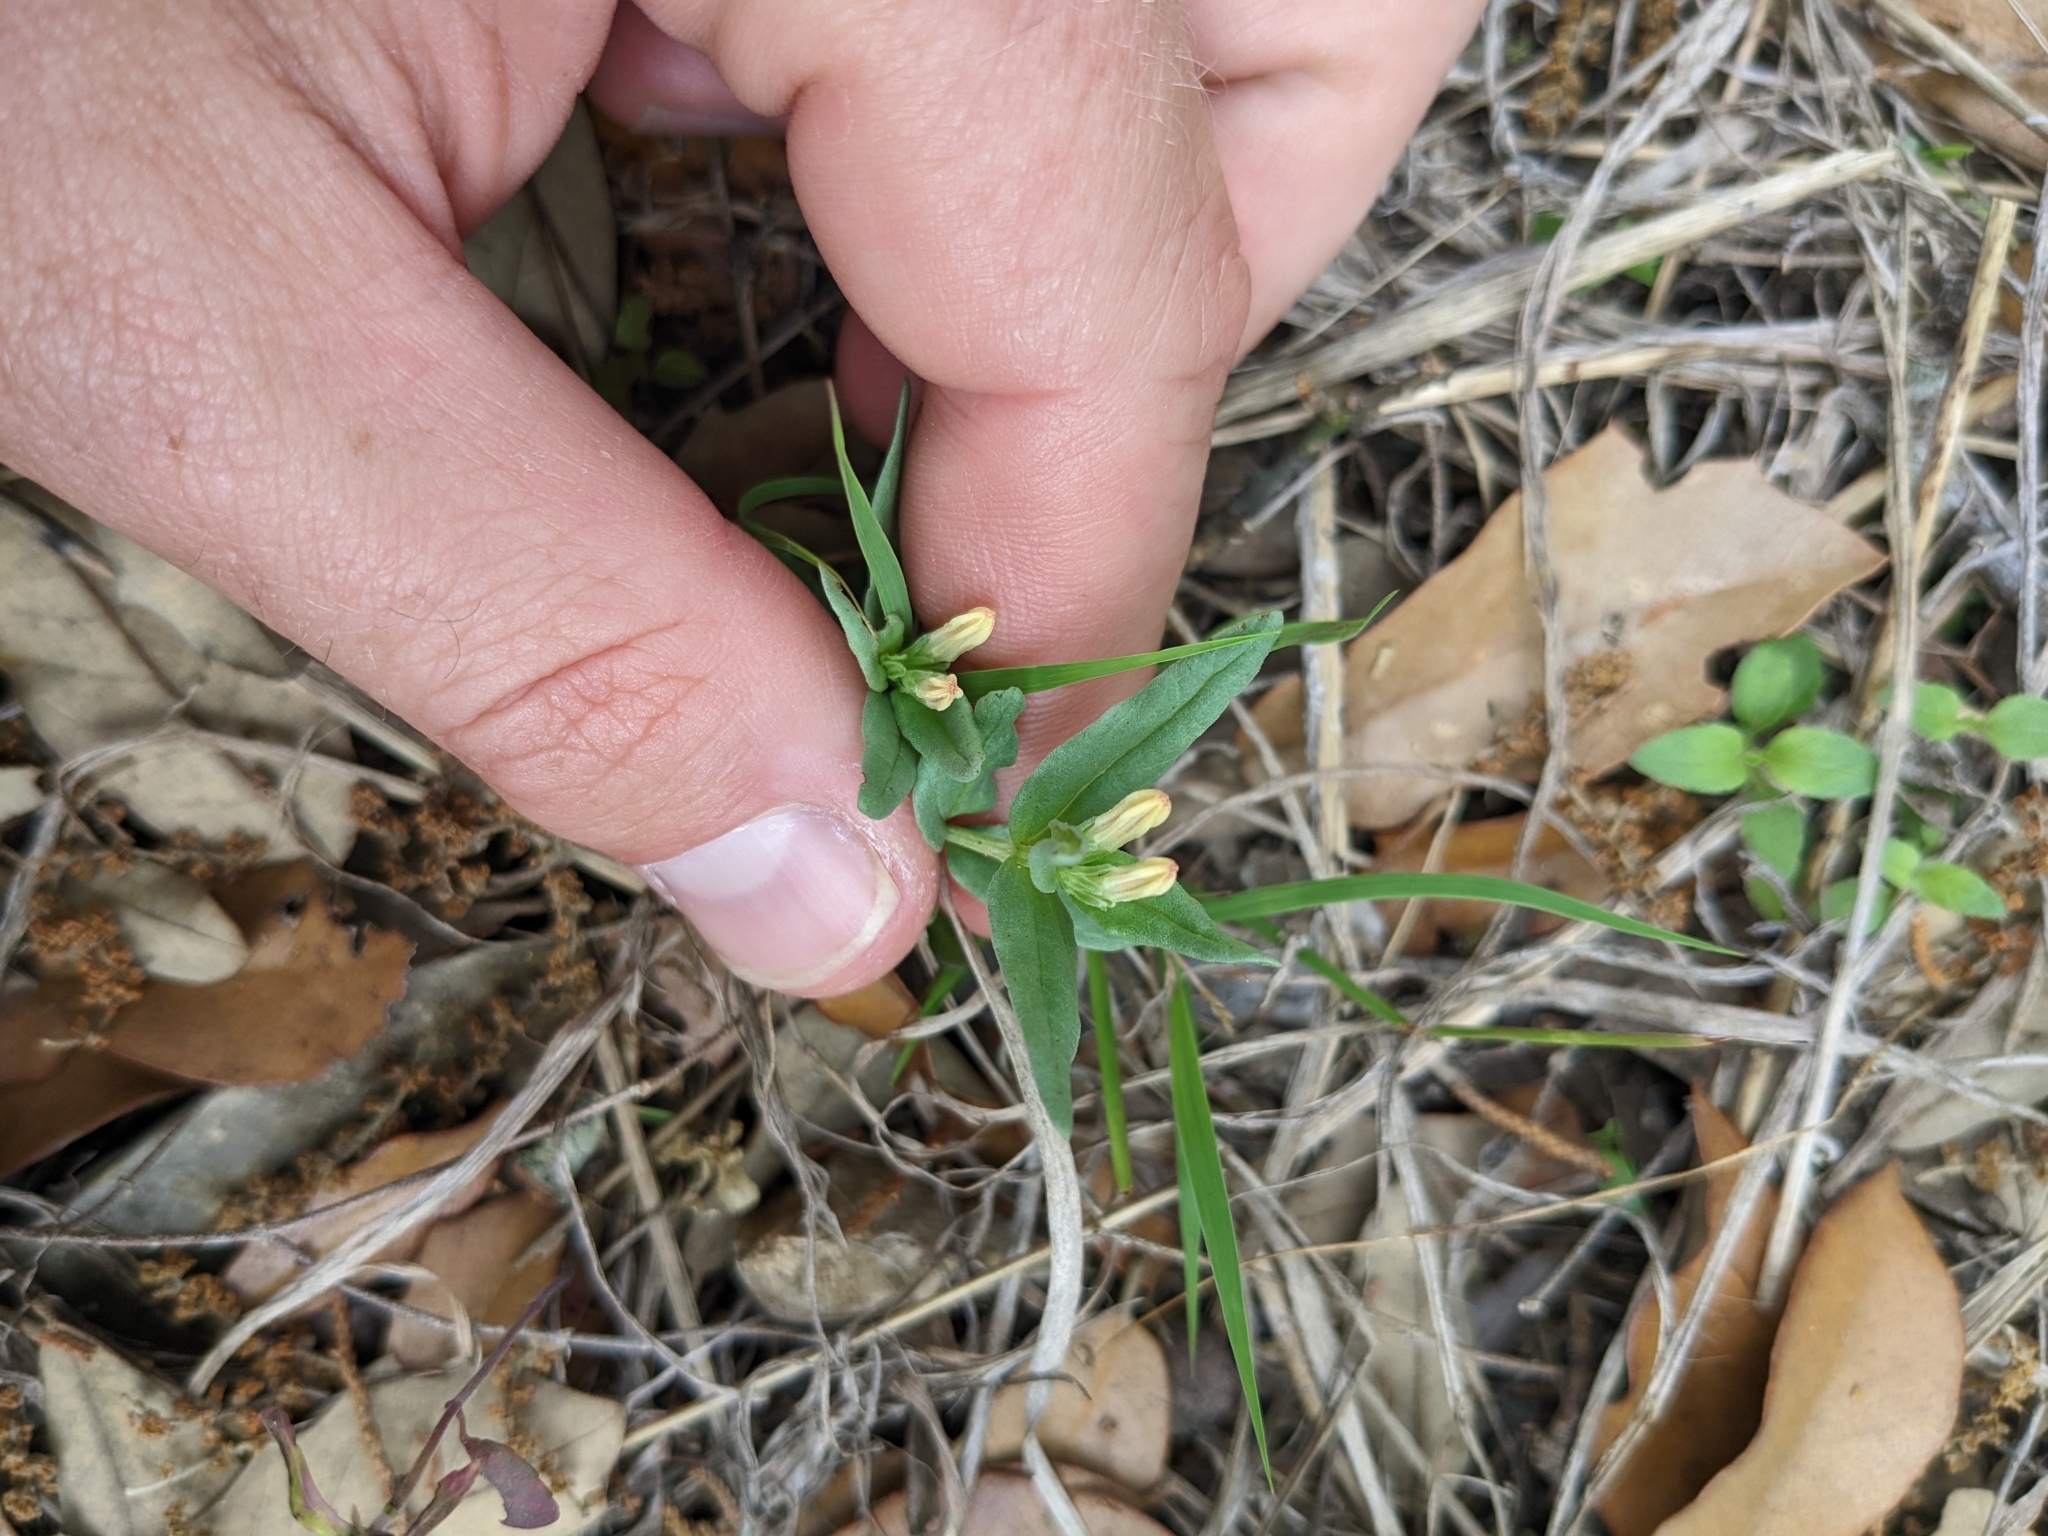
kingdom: Plantae
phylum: Tracheophyta
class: Magnoliopsida
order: Gentianales
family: Loganiaceae
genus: Spigelia
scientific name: Spigelia hedyotidea
